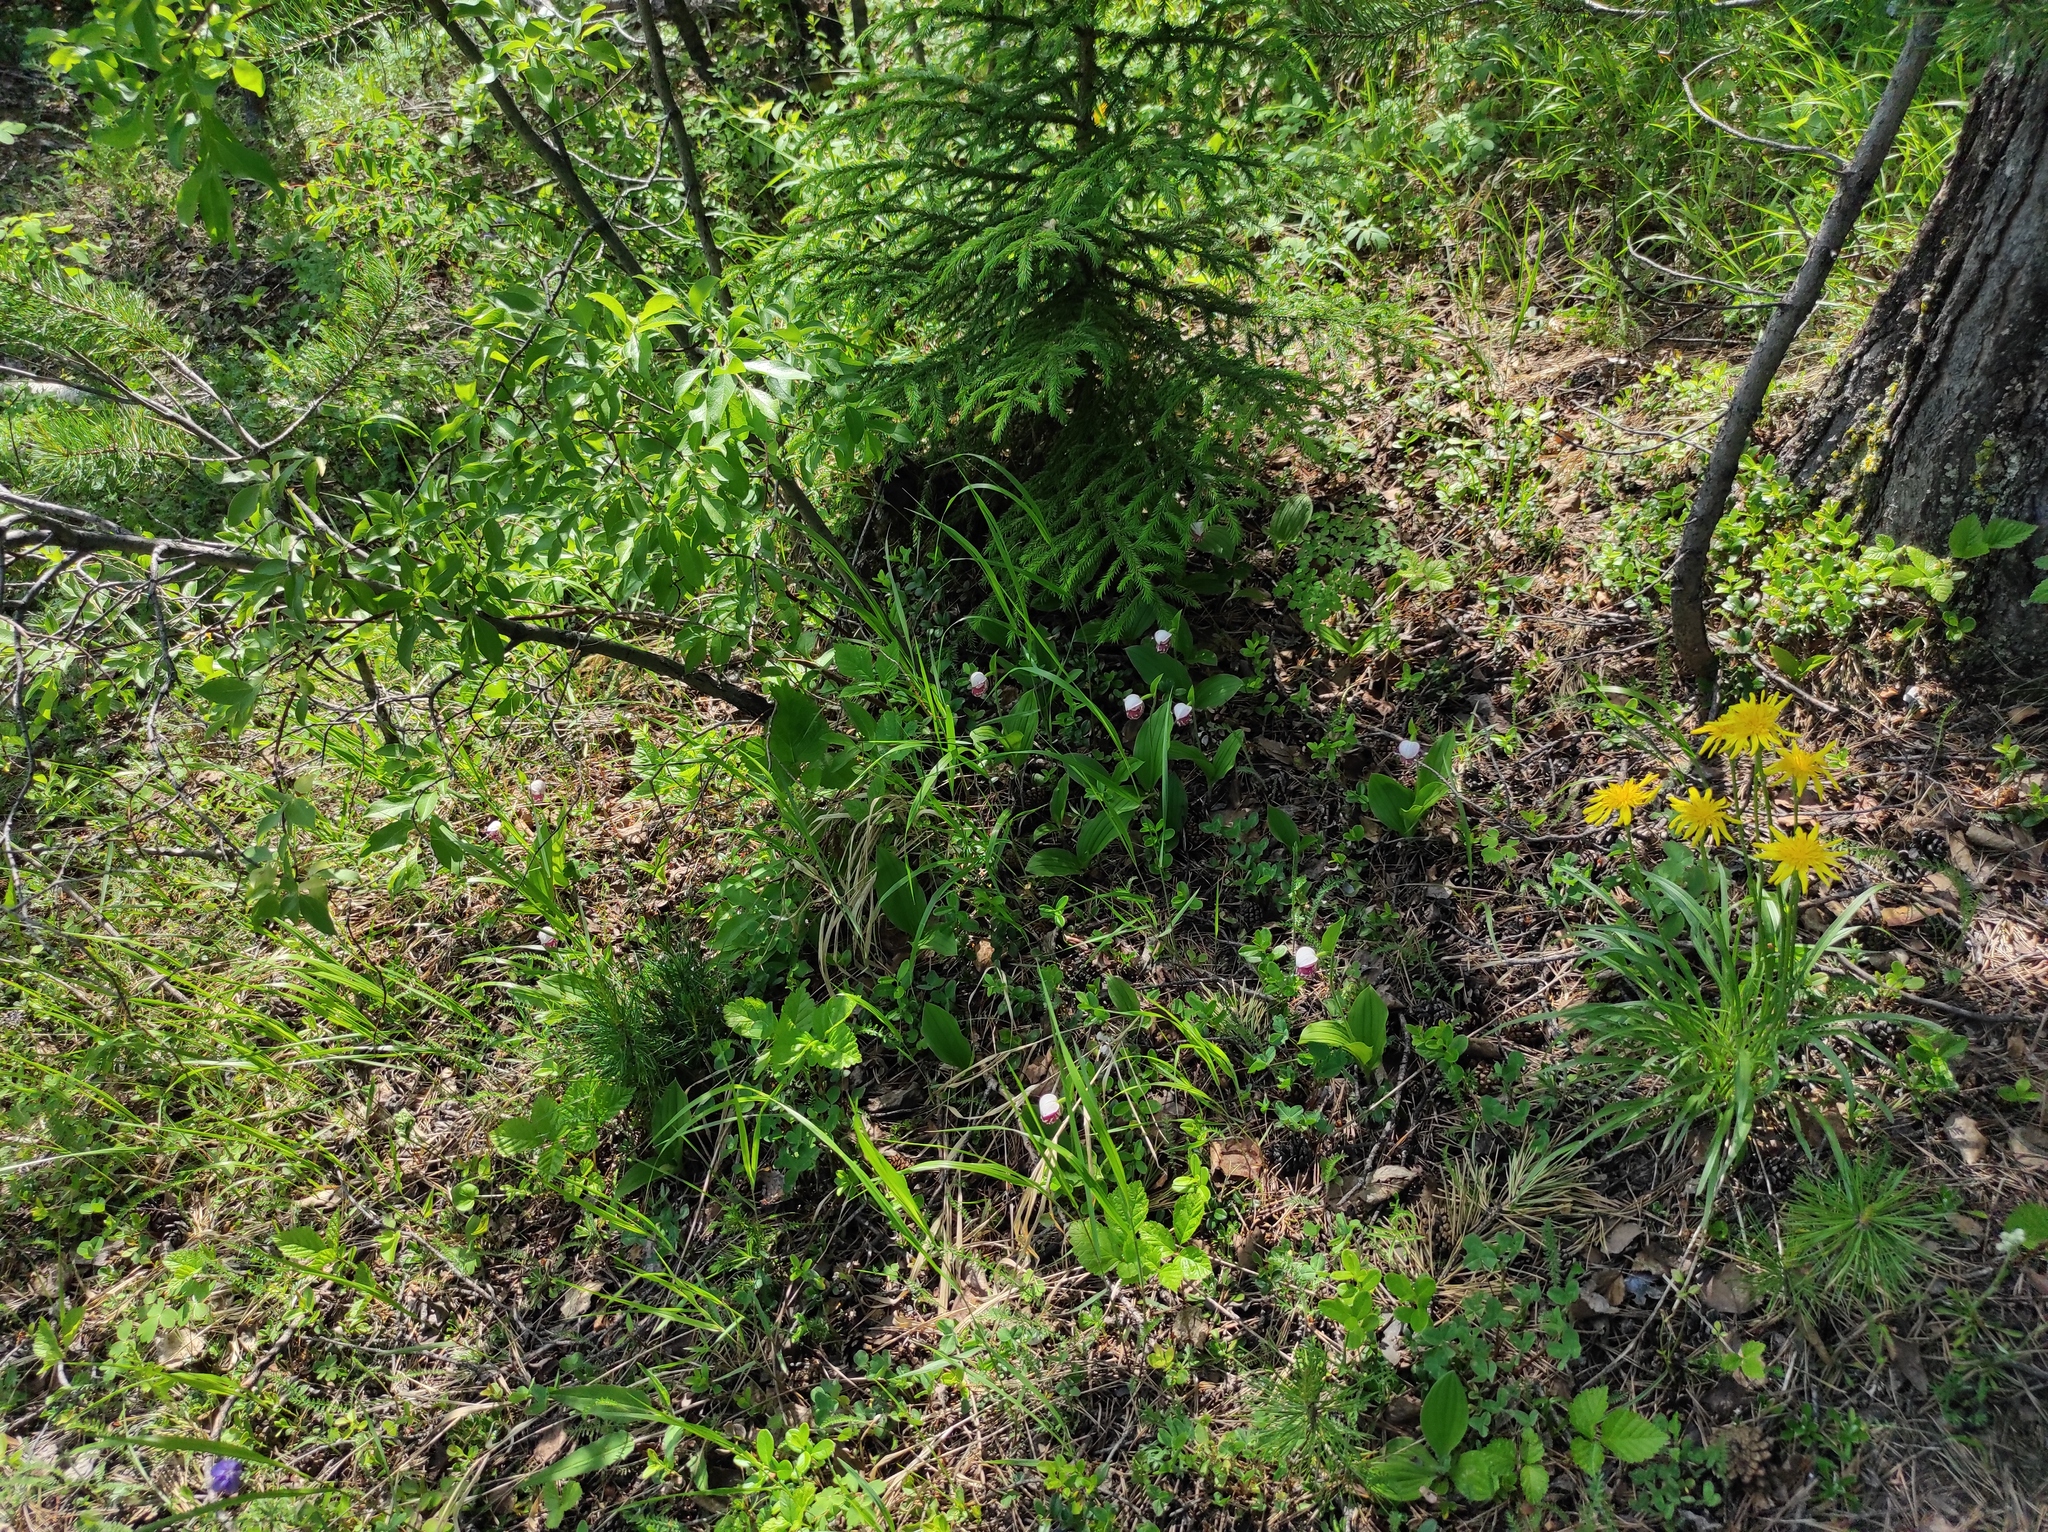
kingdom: Plantae
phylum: Tracheophyta
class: Liliopsida
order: Asparagales
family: Orchidaceae
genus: Cypripedium
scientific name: Cypripedium guttatum
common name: Pink lady slipper
